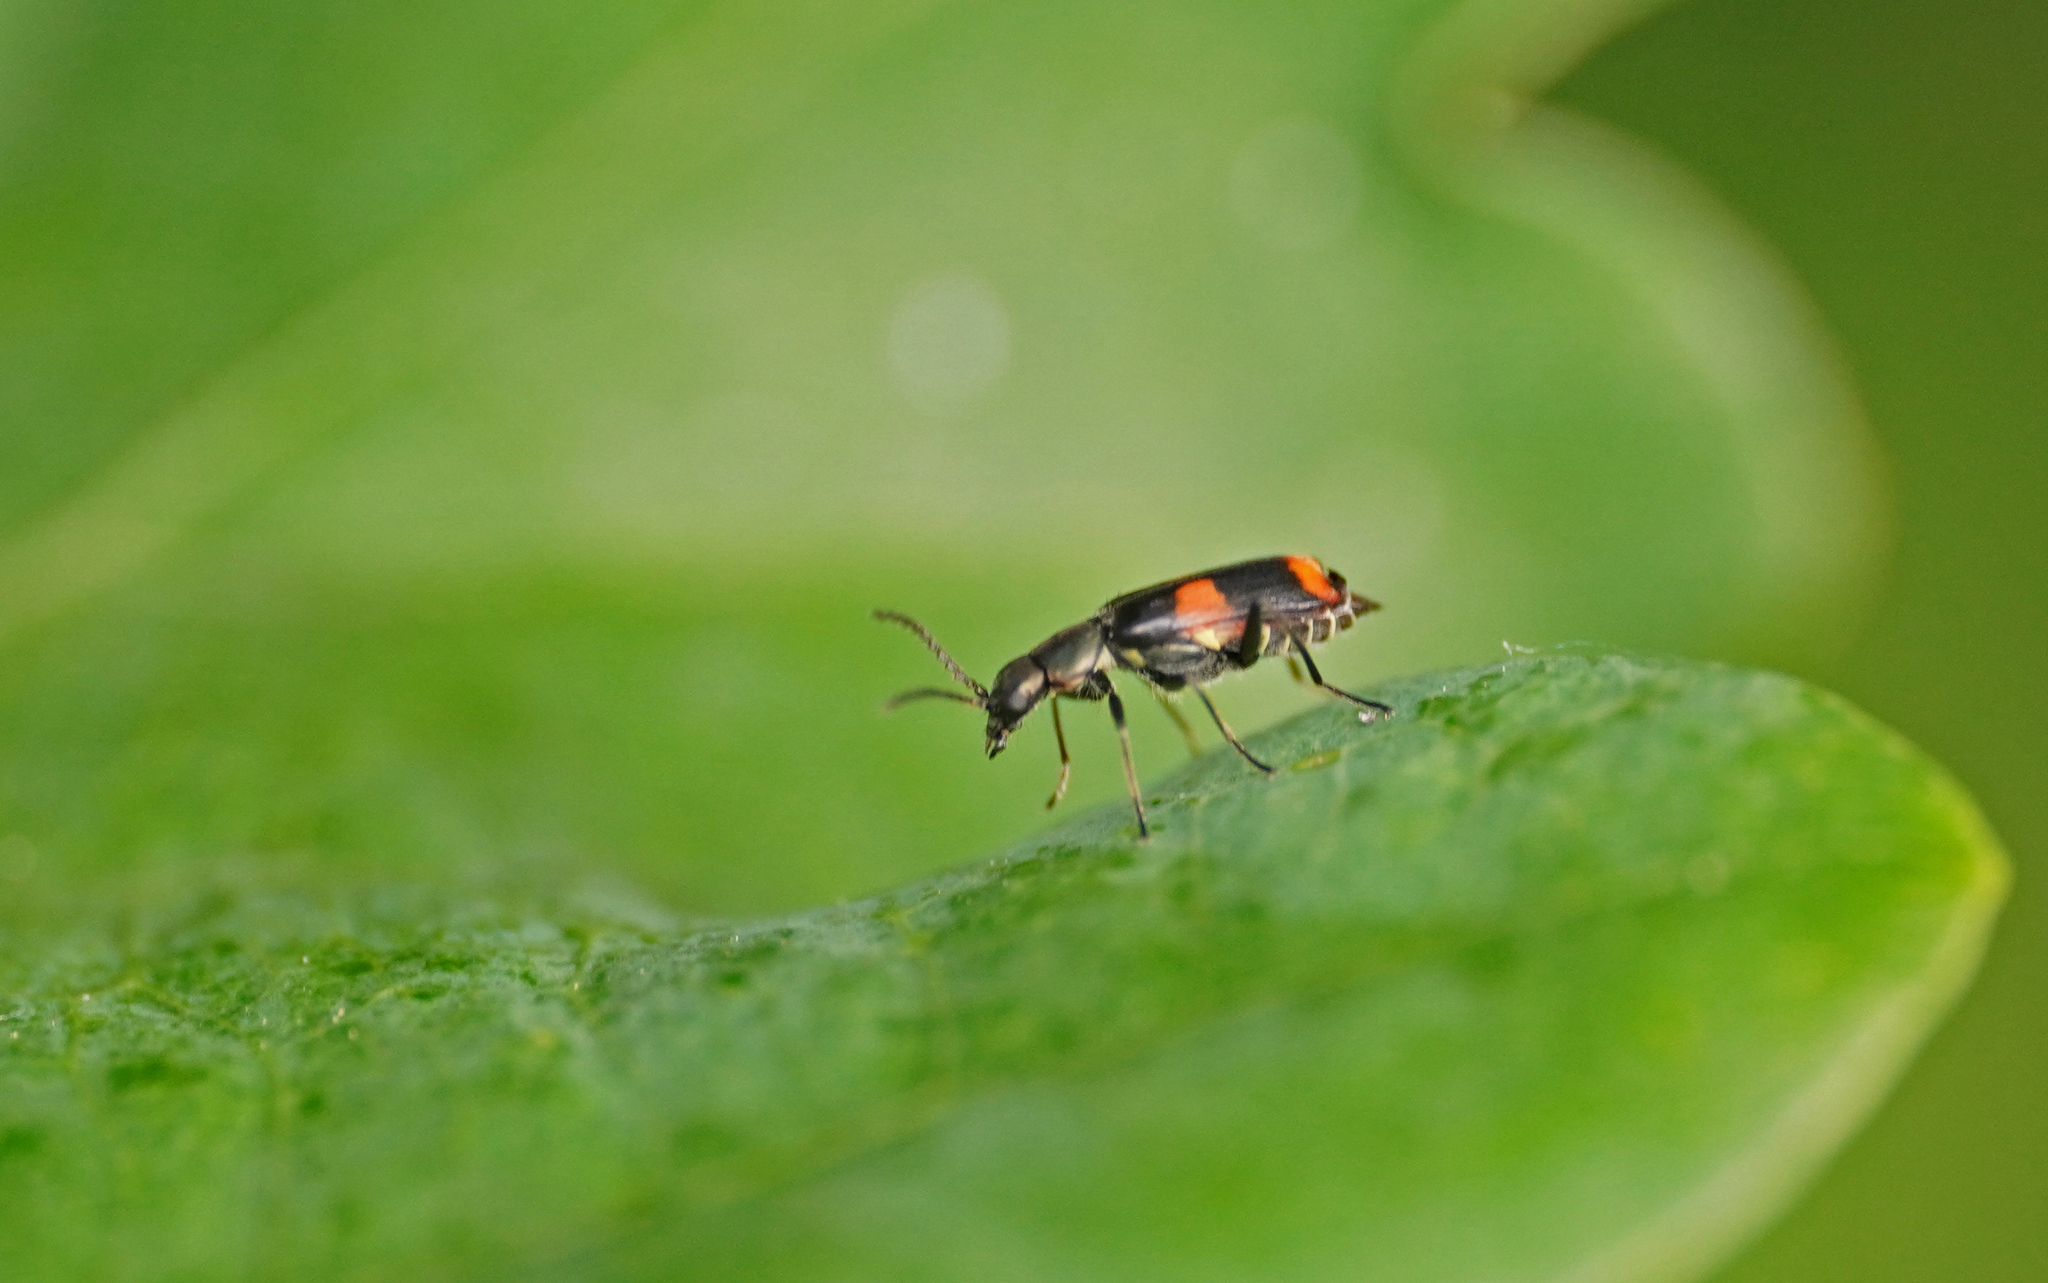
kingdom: Animalia
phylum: Arthropoda
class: Insecta
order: Coleoptera
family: Melyridae
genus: Anthocomus
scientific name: Anthocomus fasciatus
